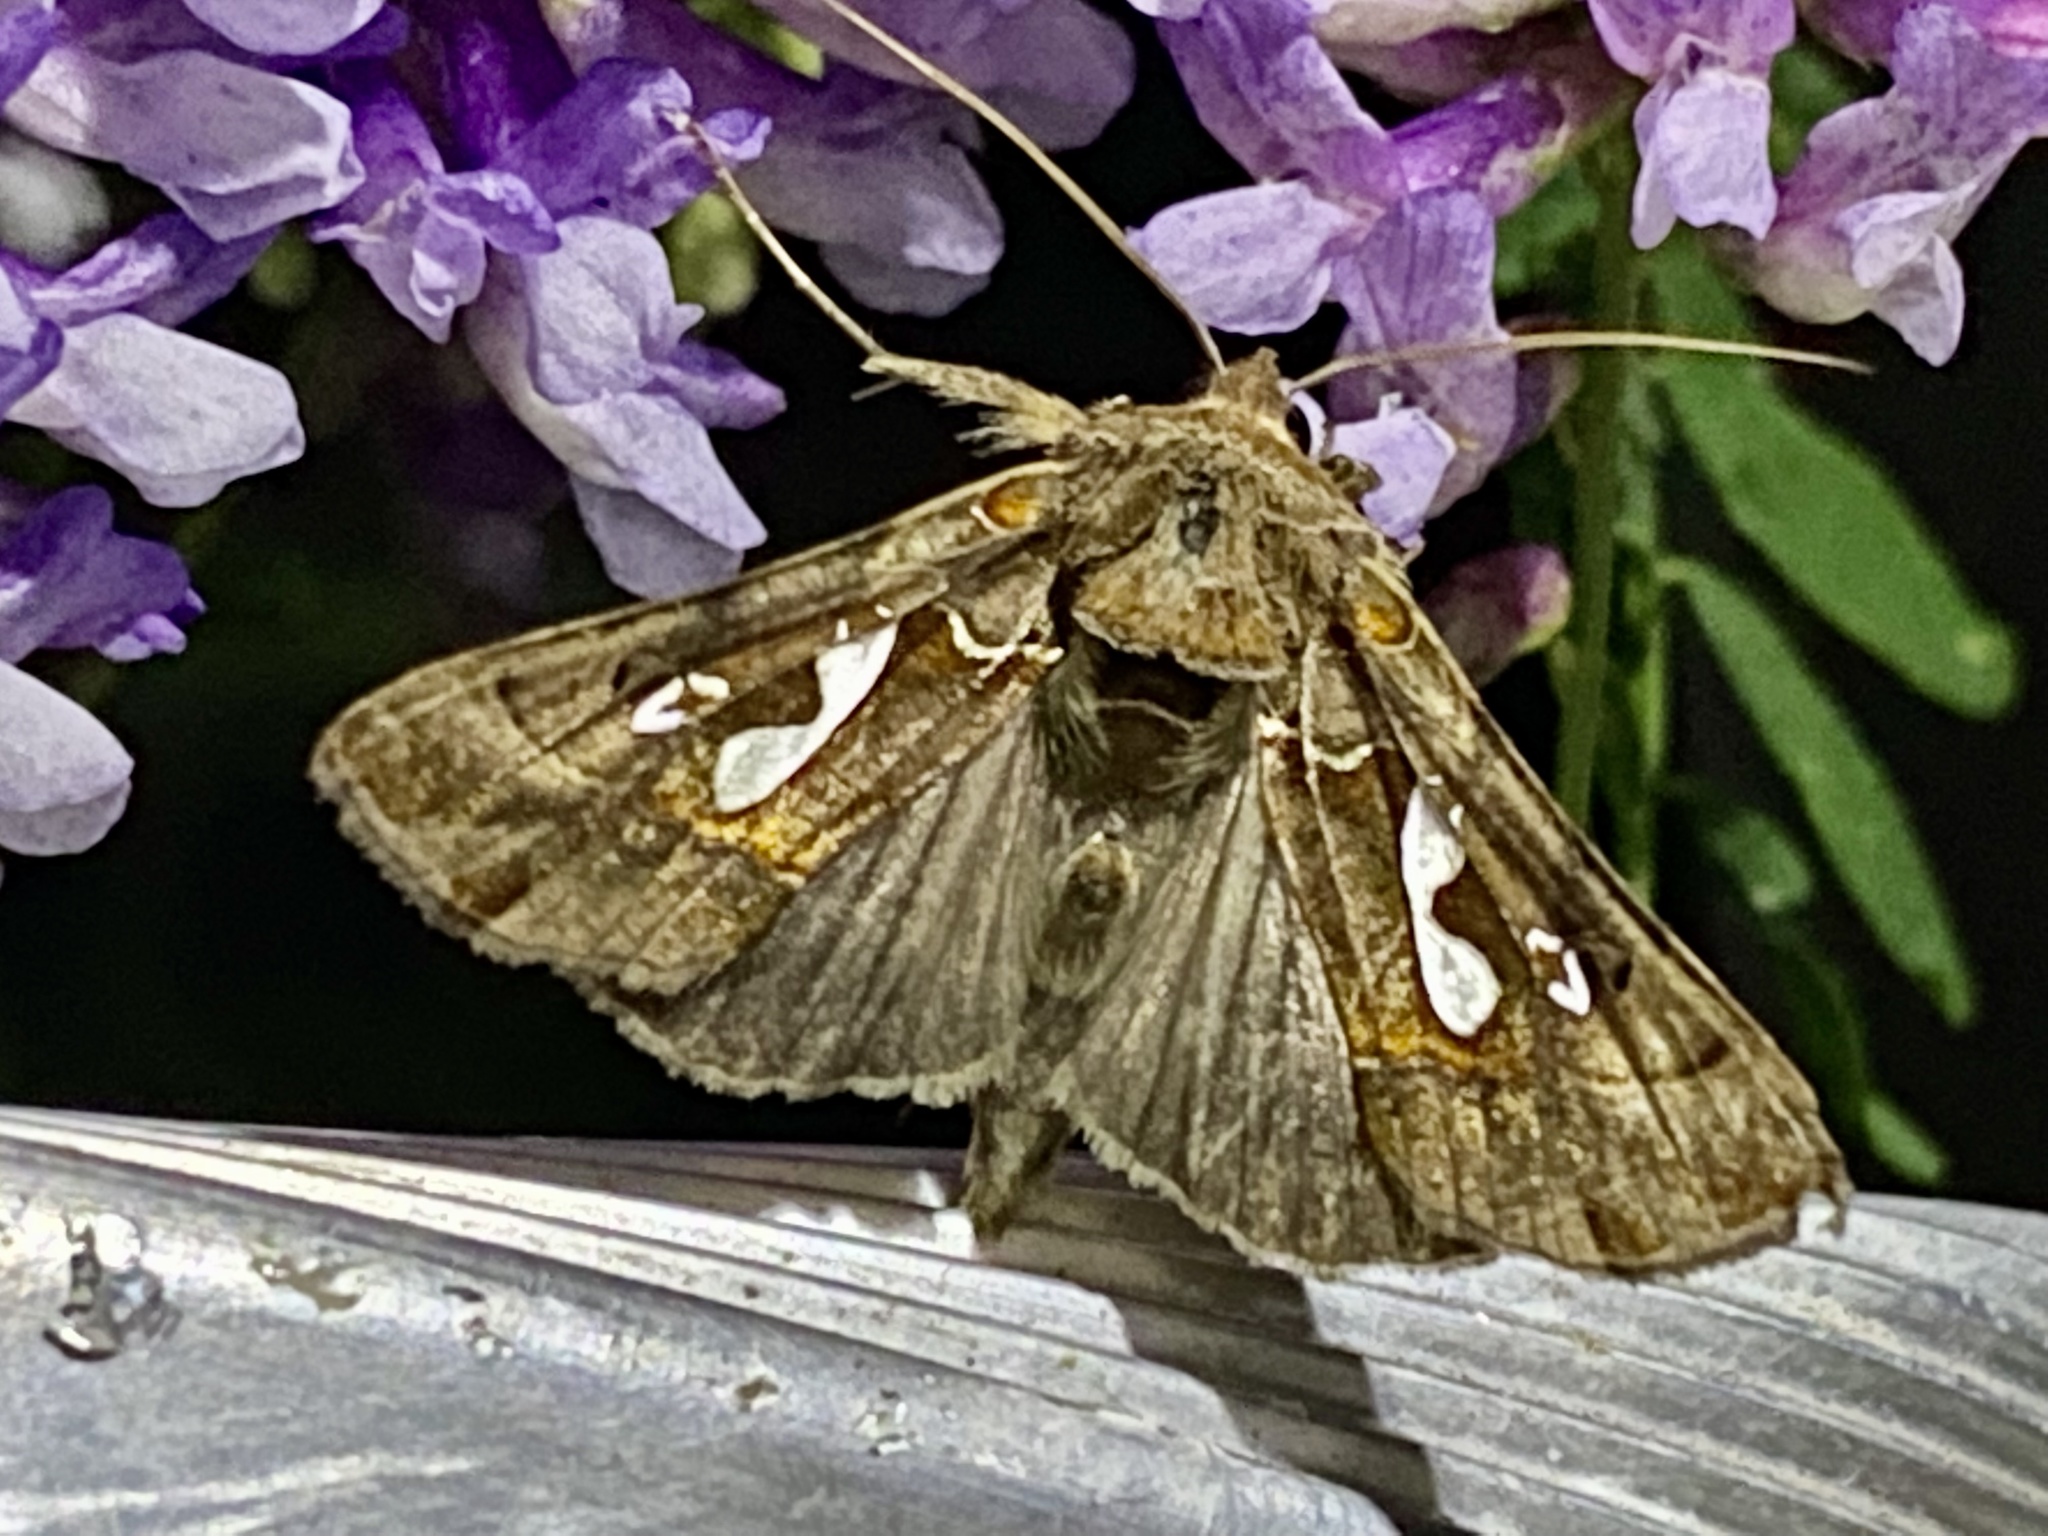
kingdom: Animalia
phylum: Arthropoda
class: Insecta
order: Lepidoptera
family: Noctuidae
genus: Megalographa
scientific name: Megalographa biloba
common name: Cutworm
